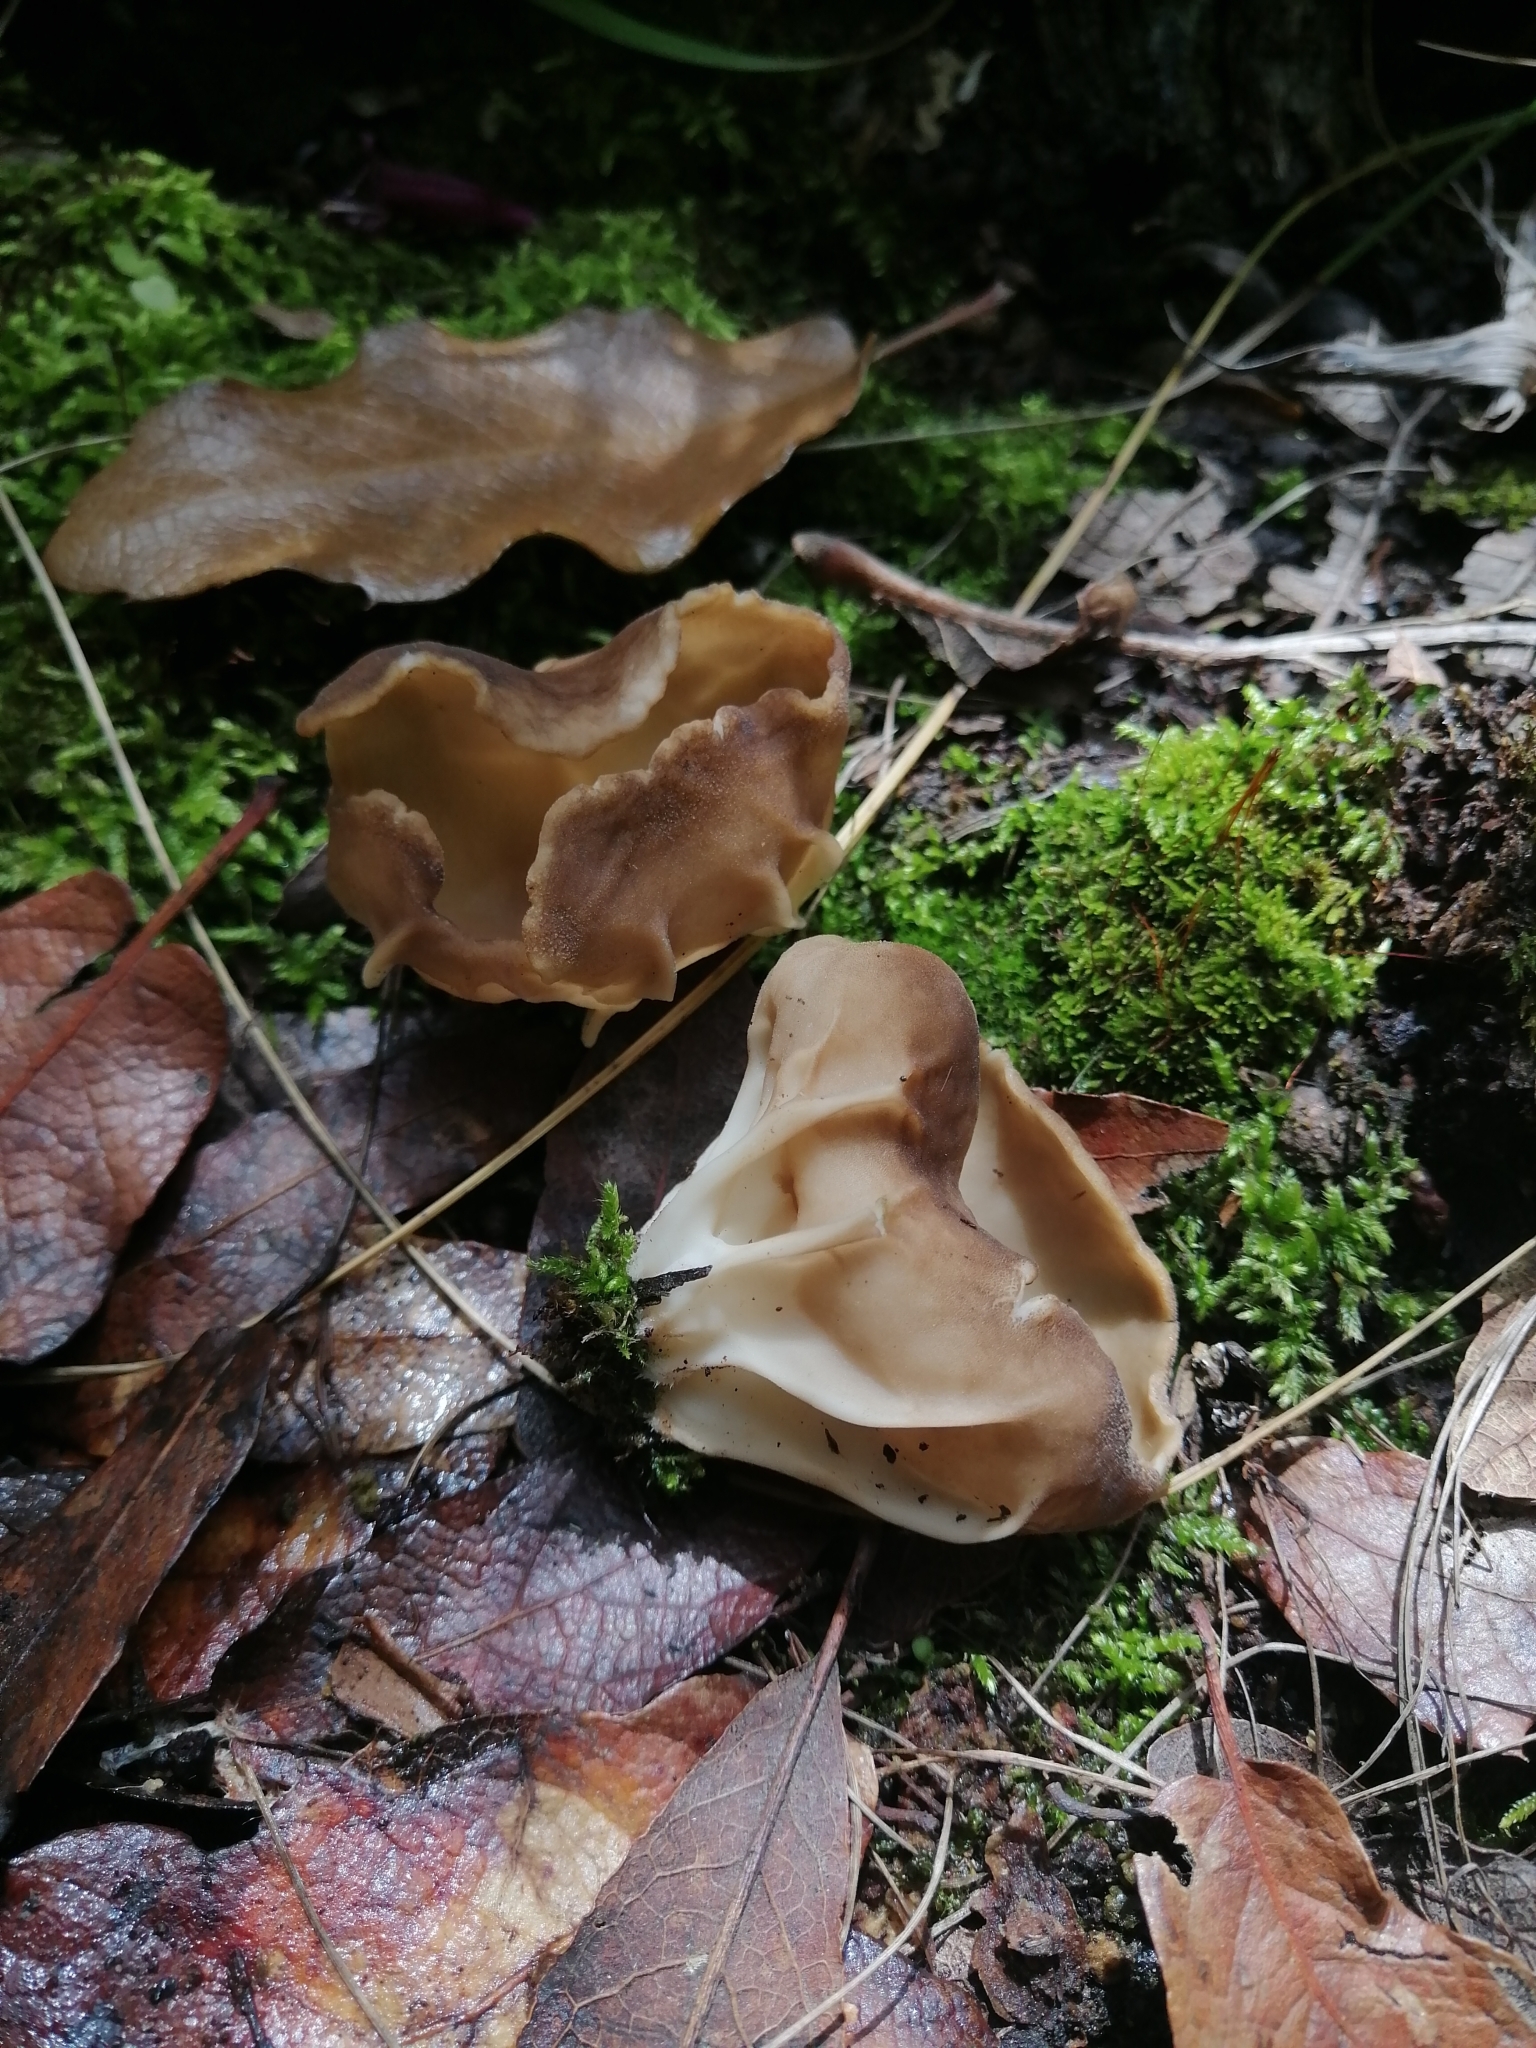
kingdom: Fungi
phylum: Ascomycota
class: Pezizomycetes
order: Pezizales
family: Helvellaceae
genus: Helvella
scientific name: Helvella acetabulum
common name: Vinegar cup
